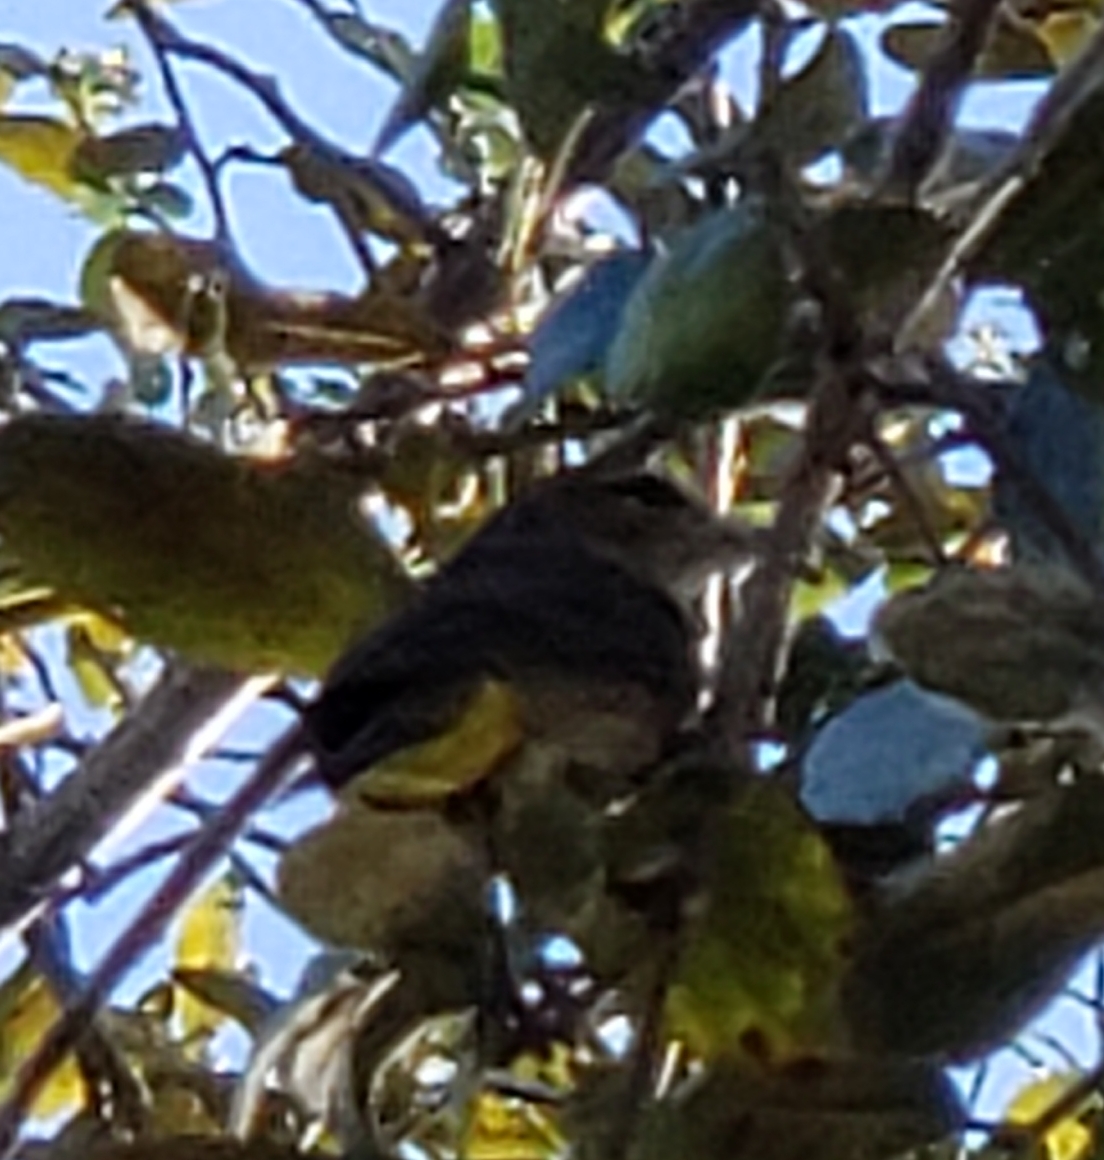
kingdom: Animalia
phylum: Chordata
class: Aves
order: Passeriformes
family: Parulidae
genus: Setophaga
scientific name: Setophaga palmarum
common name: Palm warbler
